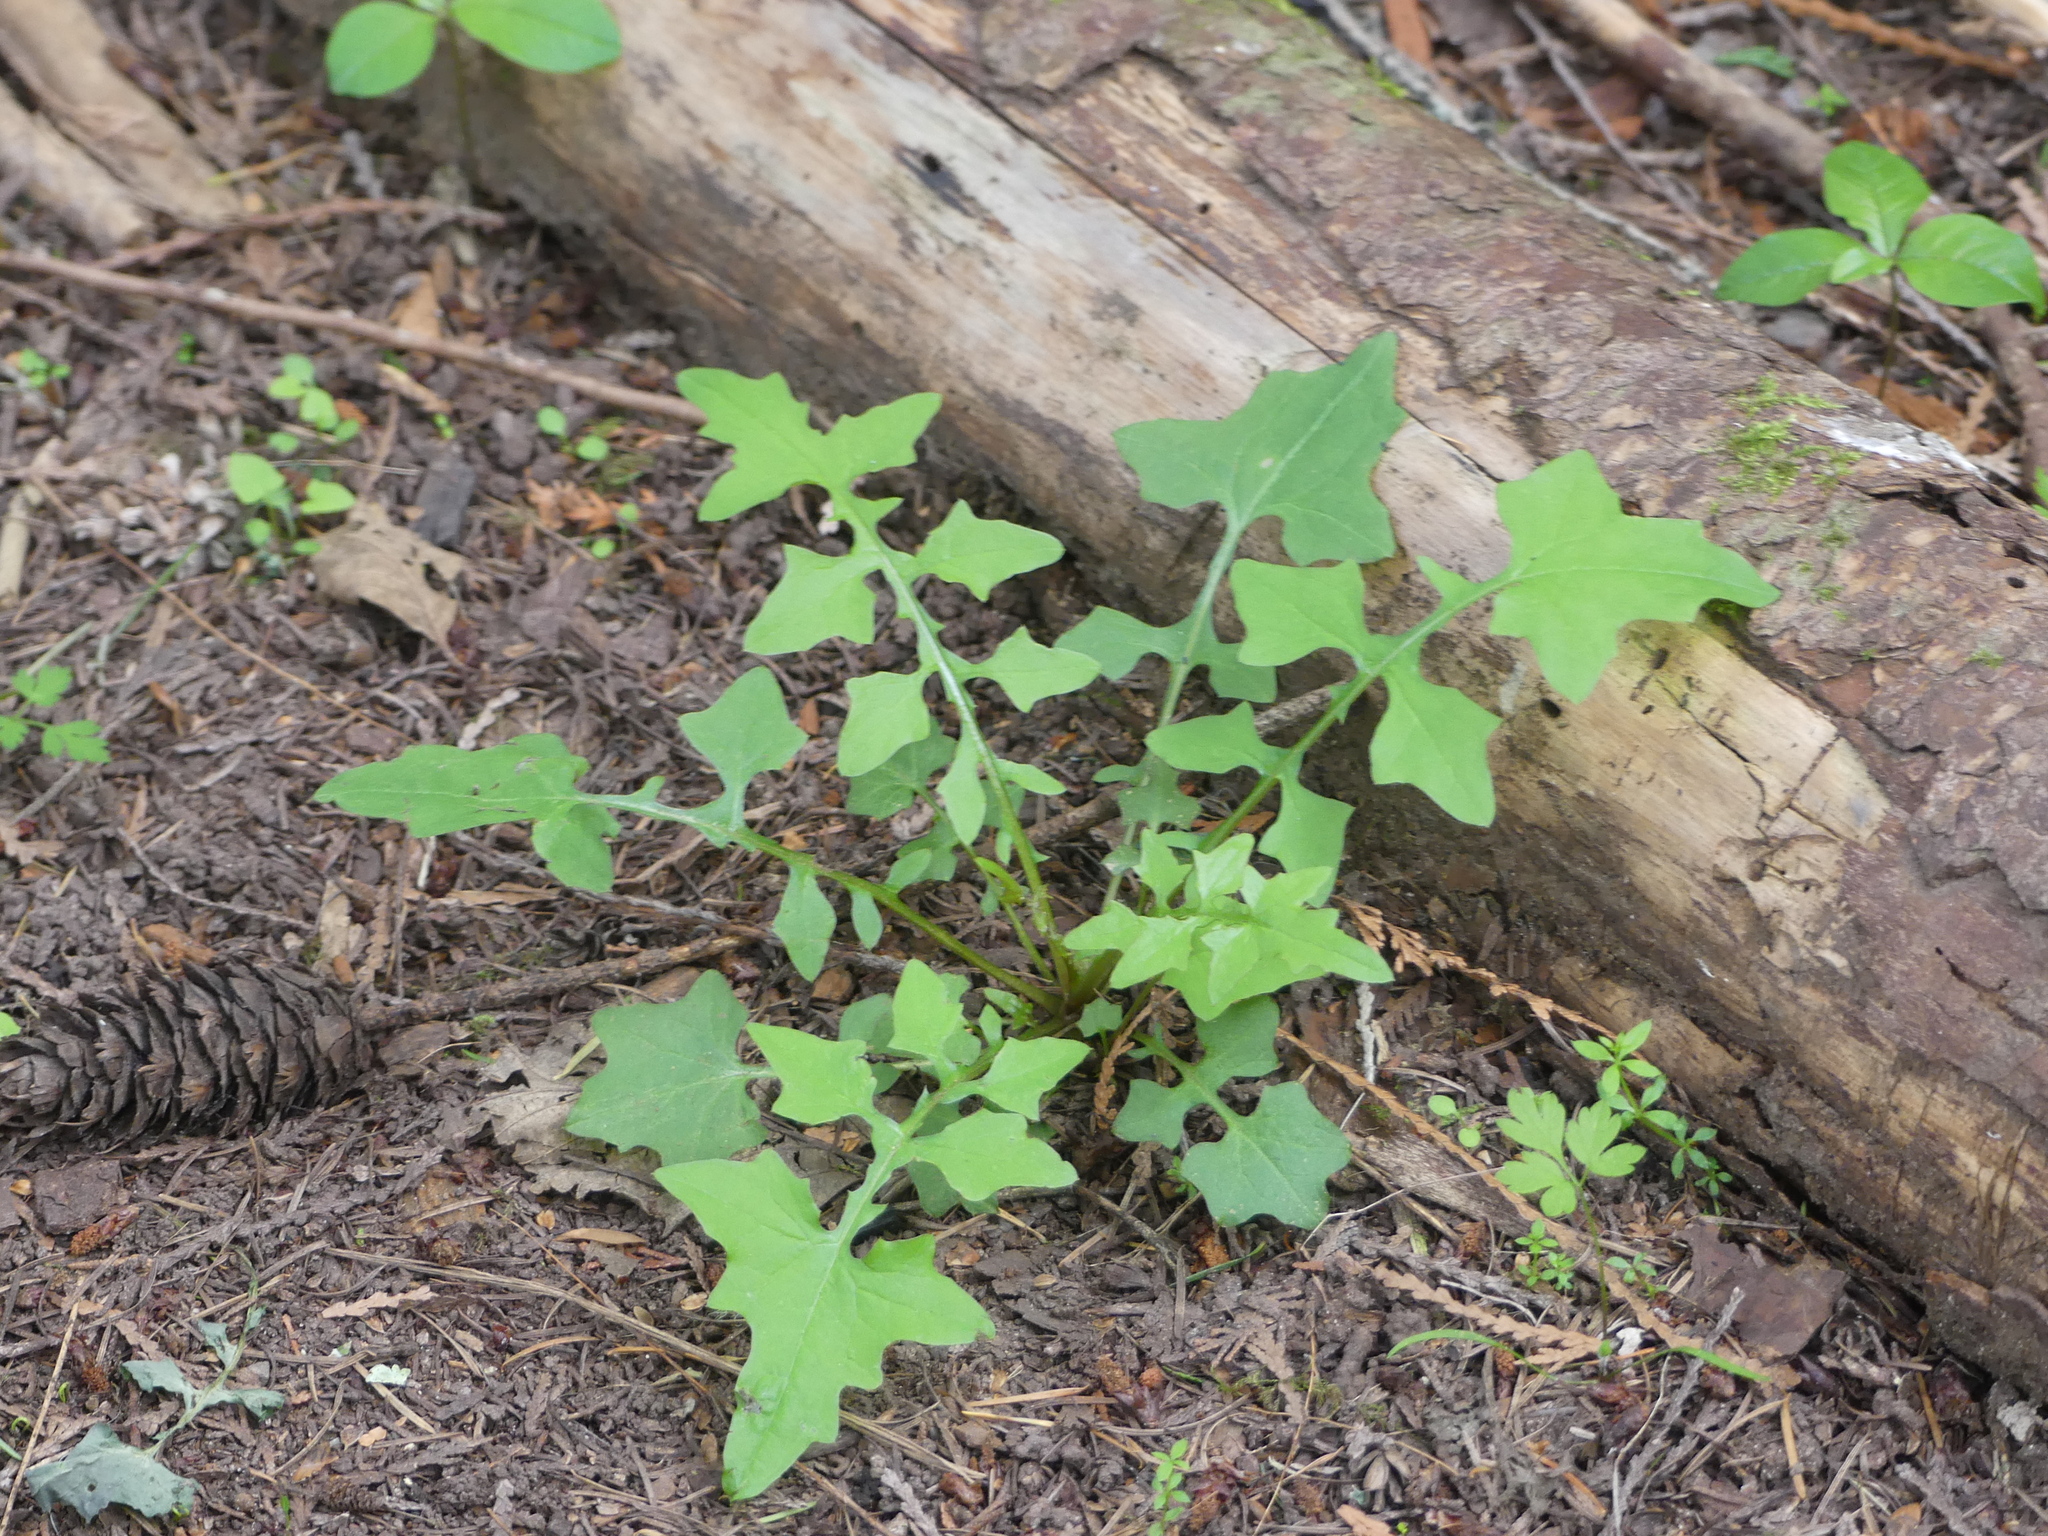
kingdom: Plantae
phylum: Tracheophyta
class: Magnoliopsida
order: Asterales
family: Asteraceae
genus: Mycelis
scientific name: Mycelis muralis
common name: Wall lettuce
